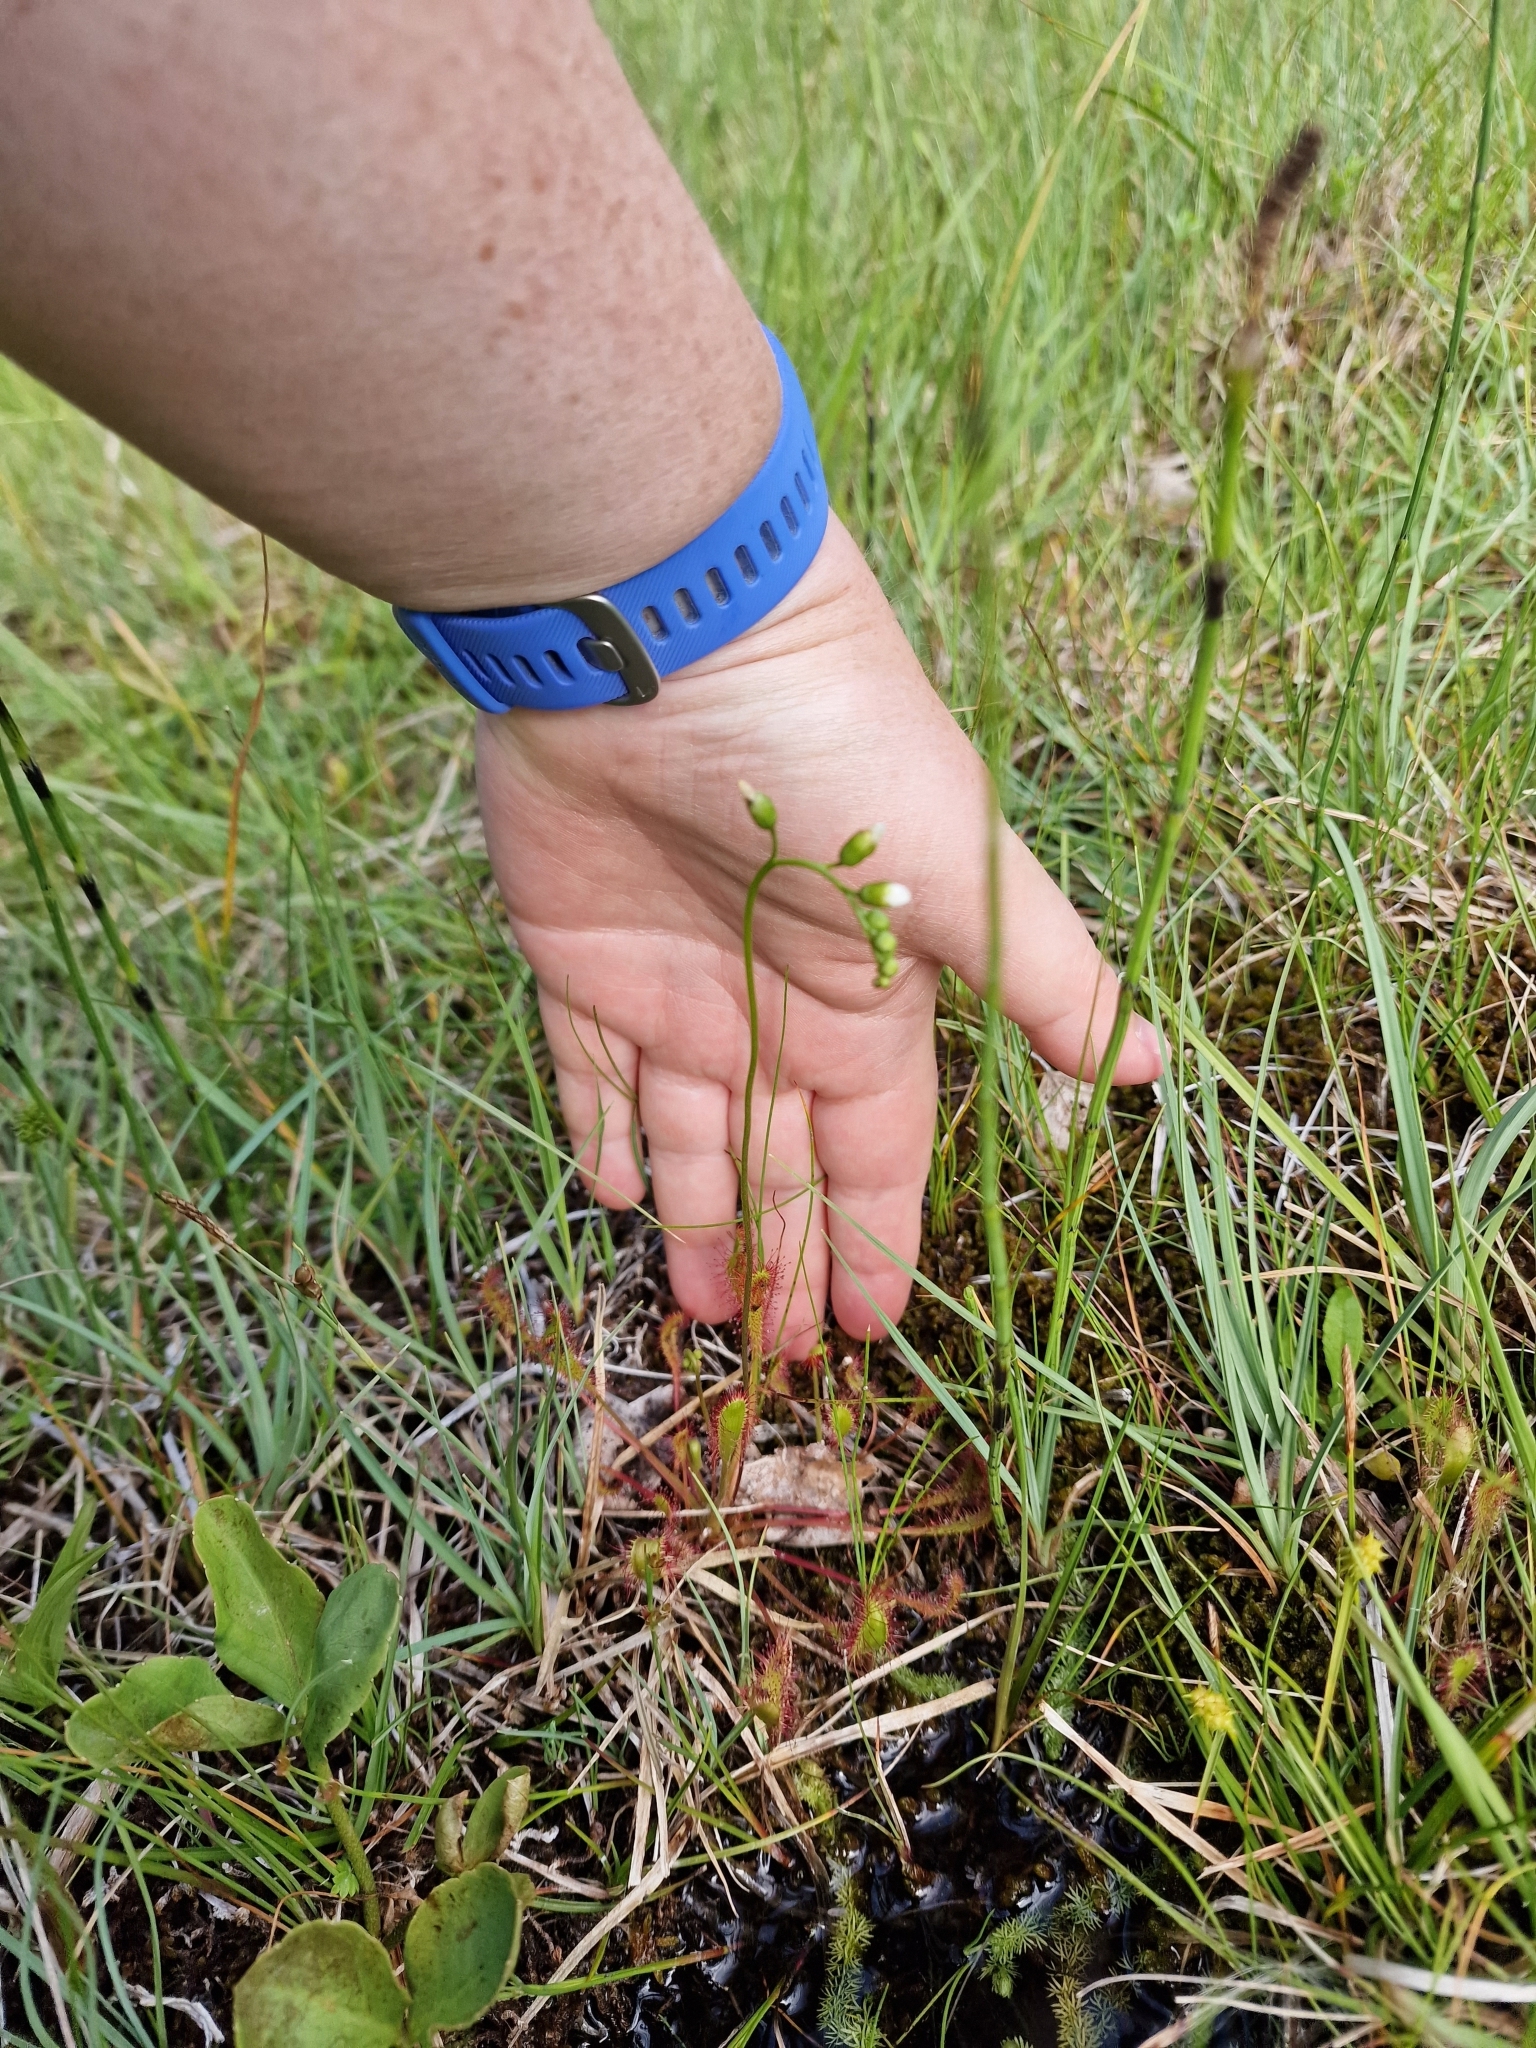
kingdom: Plantae
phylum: Tracheophyta
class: Magnoliopsida
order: Caryophyllales
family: Droseraceae
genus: Drosera
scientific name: Drosera anglica
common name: Great sundew
